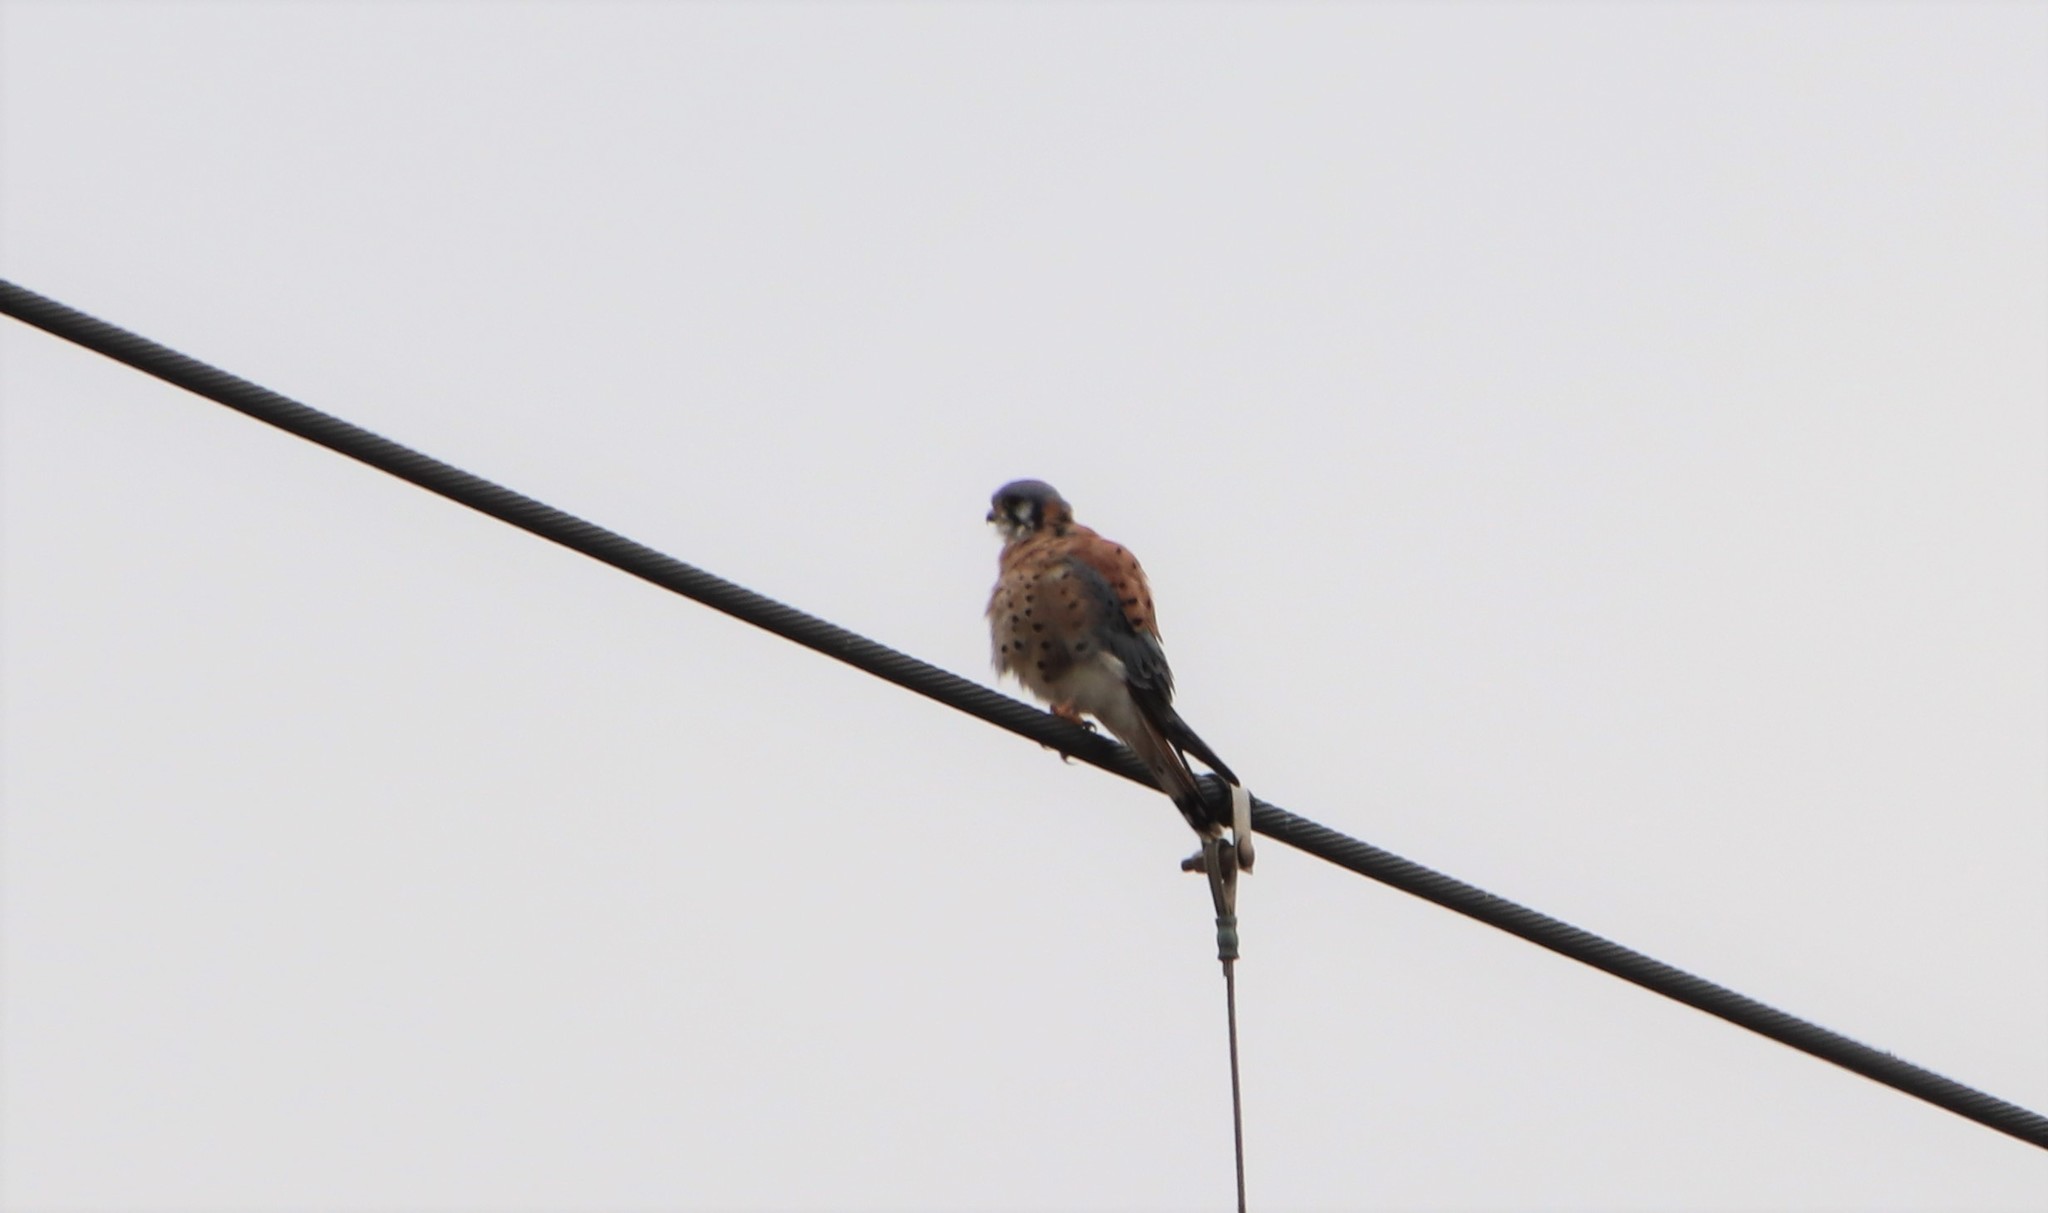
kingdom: Animalia
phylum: Chordata
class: Aves
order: Falconiformes
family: Falconidae
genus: Falco
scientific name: Falco sparverius
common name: American kestrel
